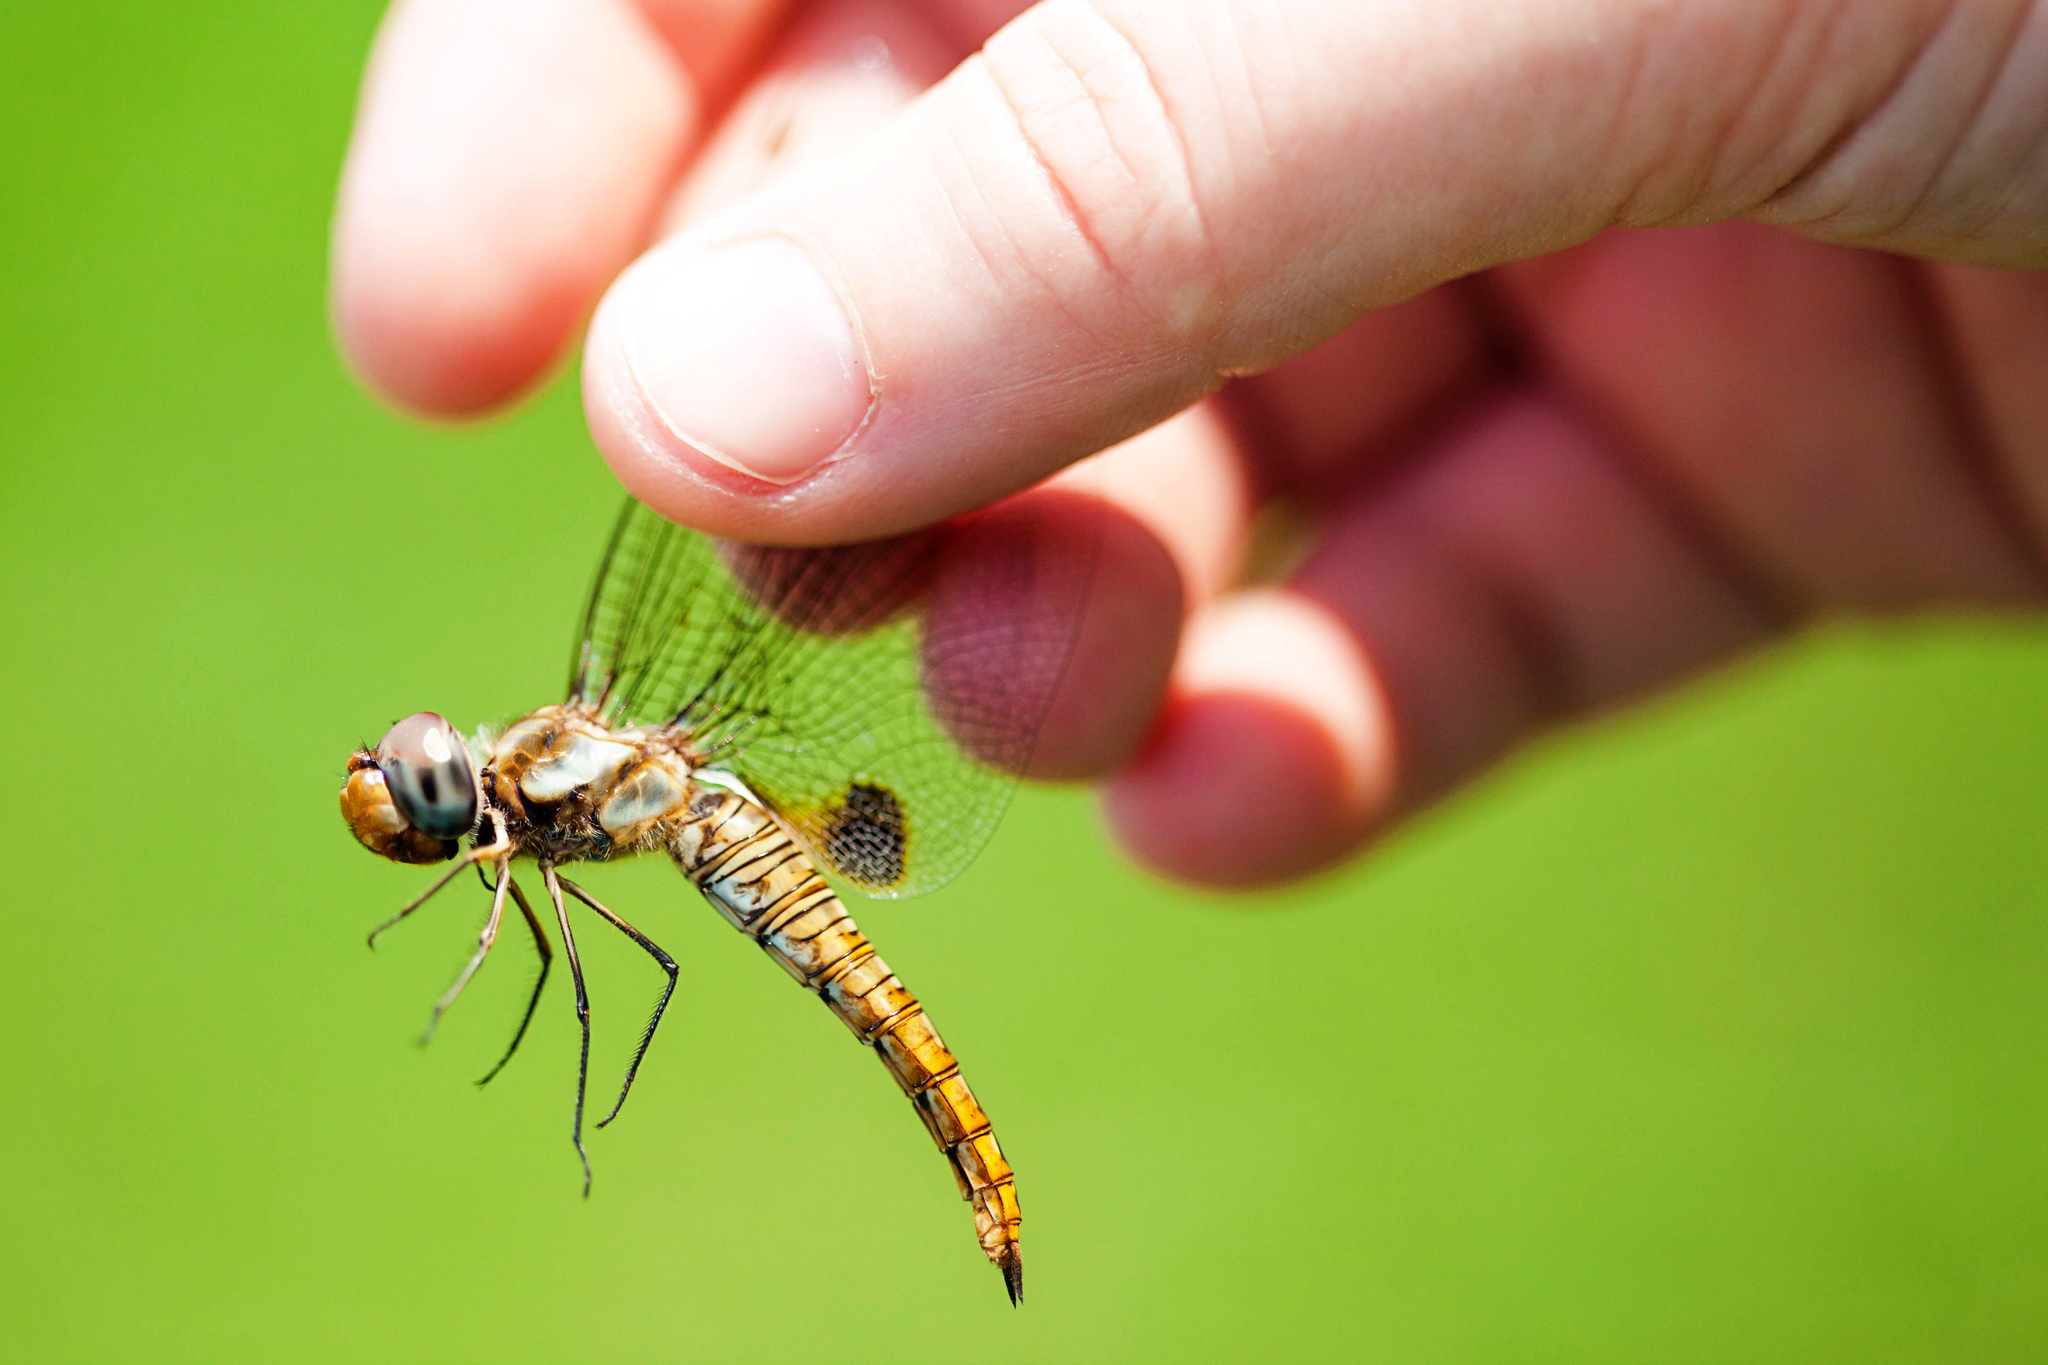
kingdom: Animalia
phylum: Arthropoda
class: Insecta
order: Odonata
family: Libellulidae
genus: Pantala
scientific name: Pantala hymenaea
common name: Spot-winged glider
